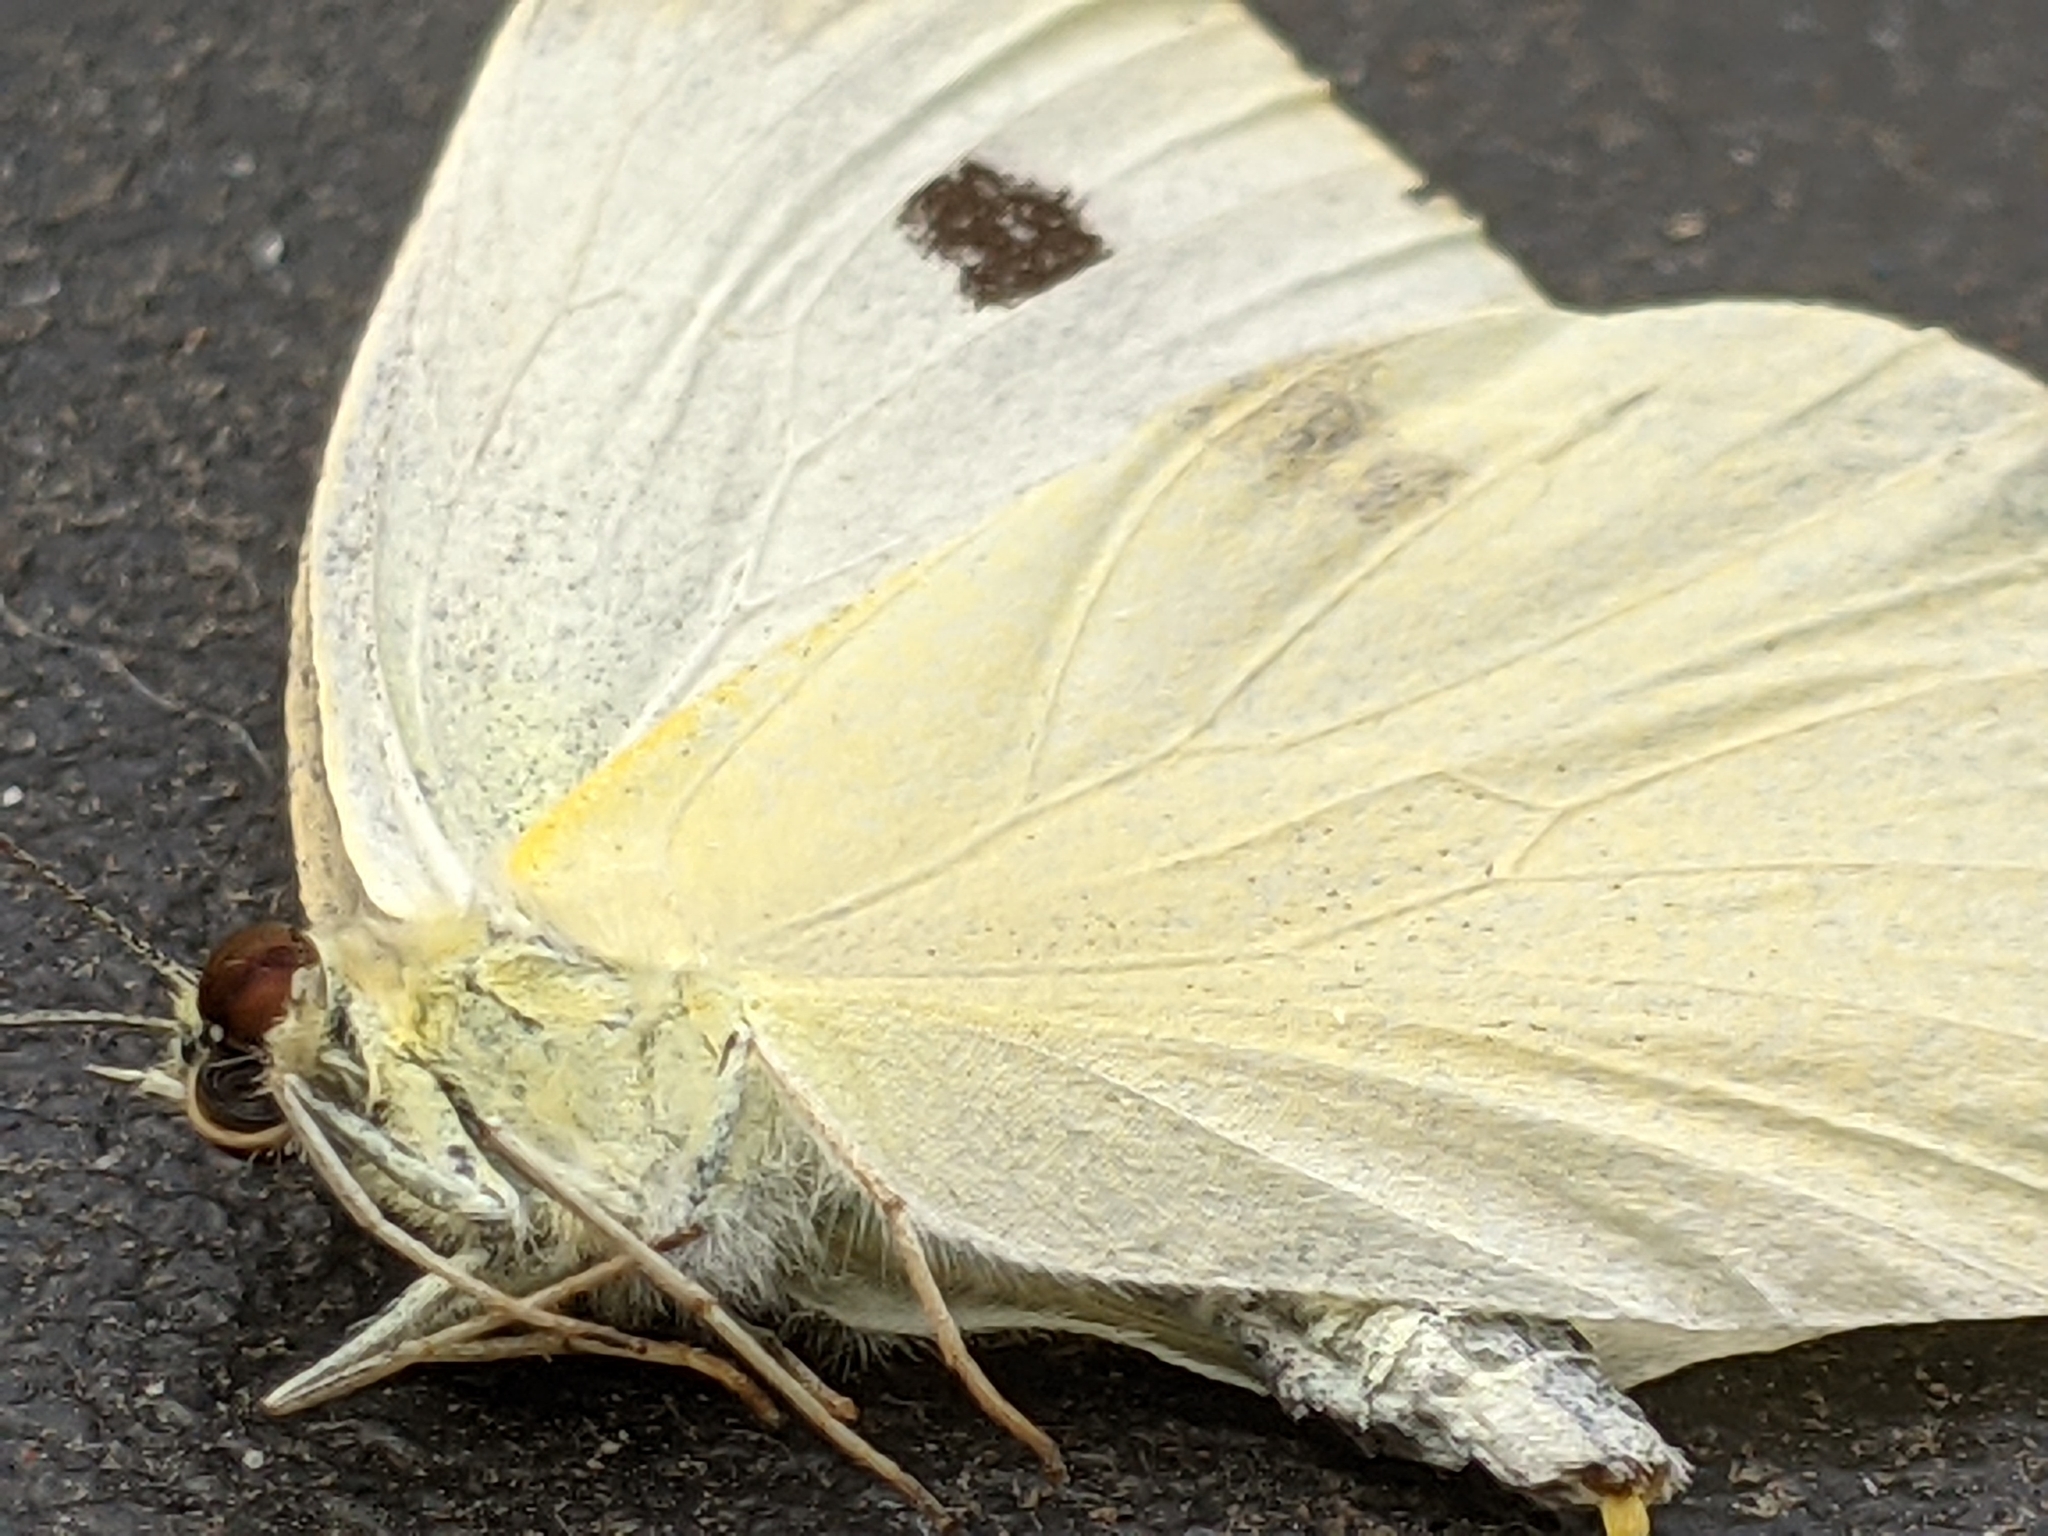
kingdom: Animalia
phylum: Arthropoda
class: Insecta
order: Lepidoptera
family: Pieridae
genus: Pieris
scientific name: Pieris rapae
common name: Small white
